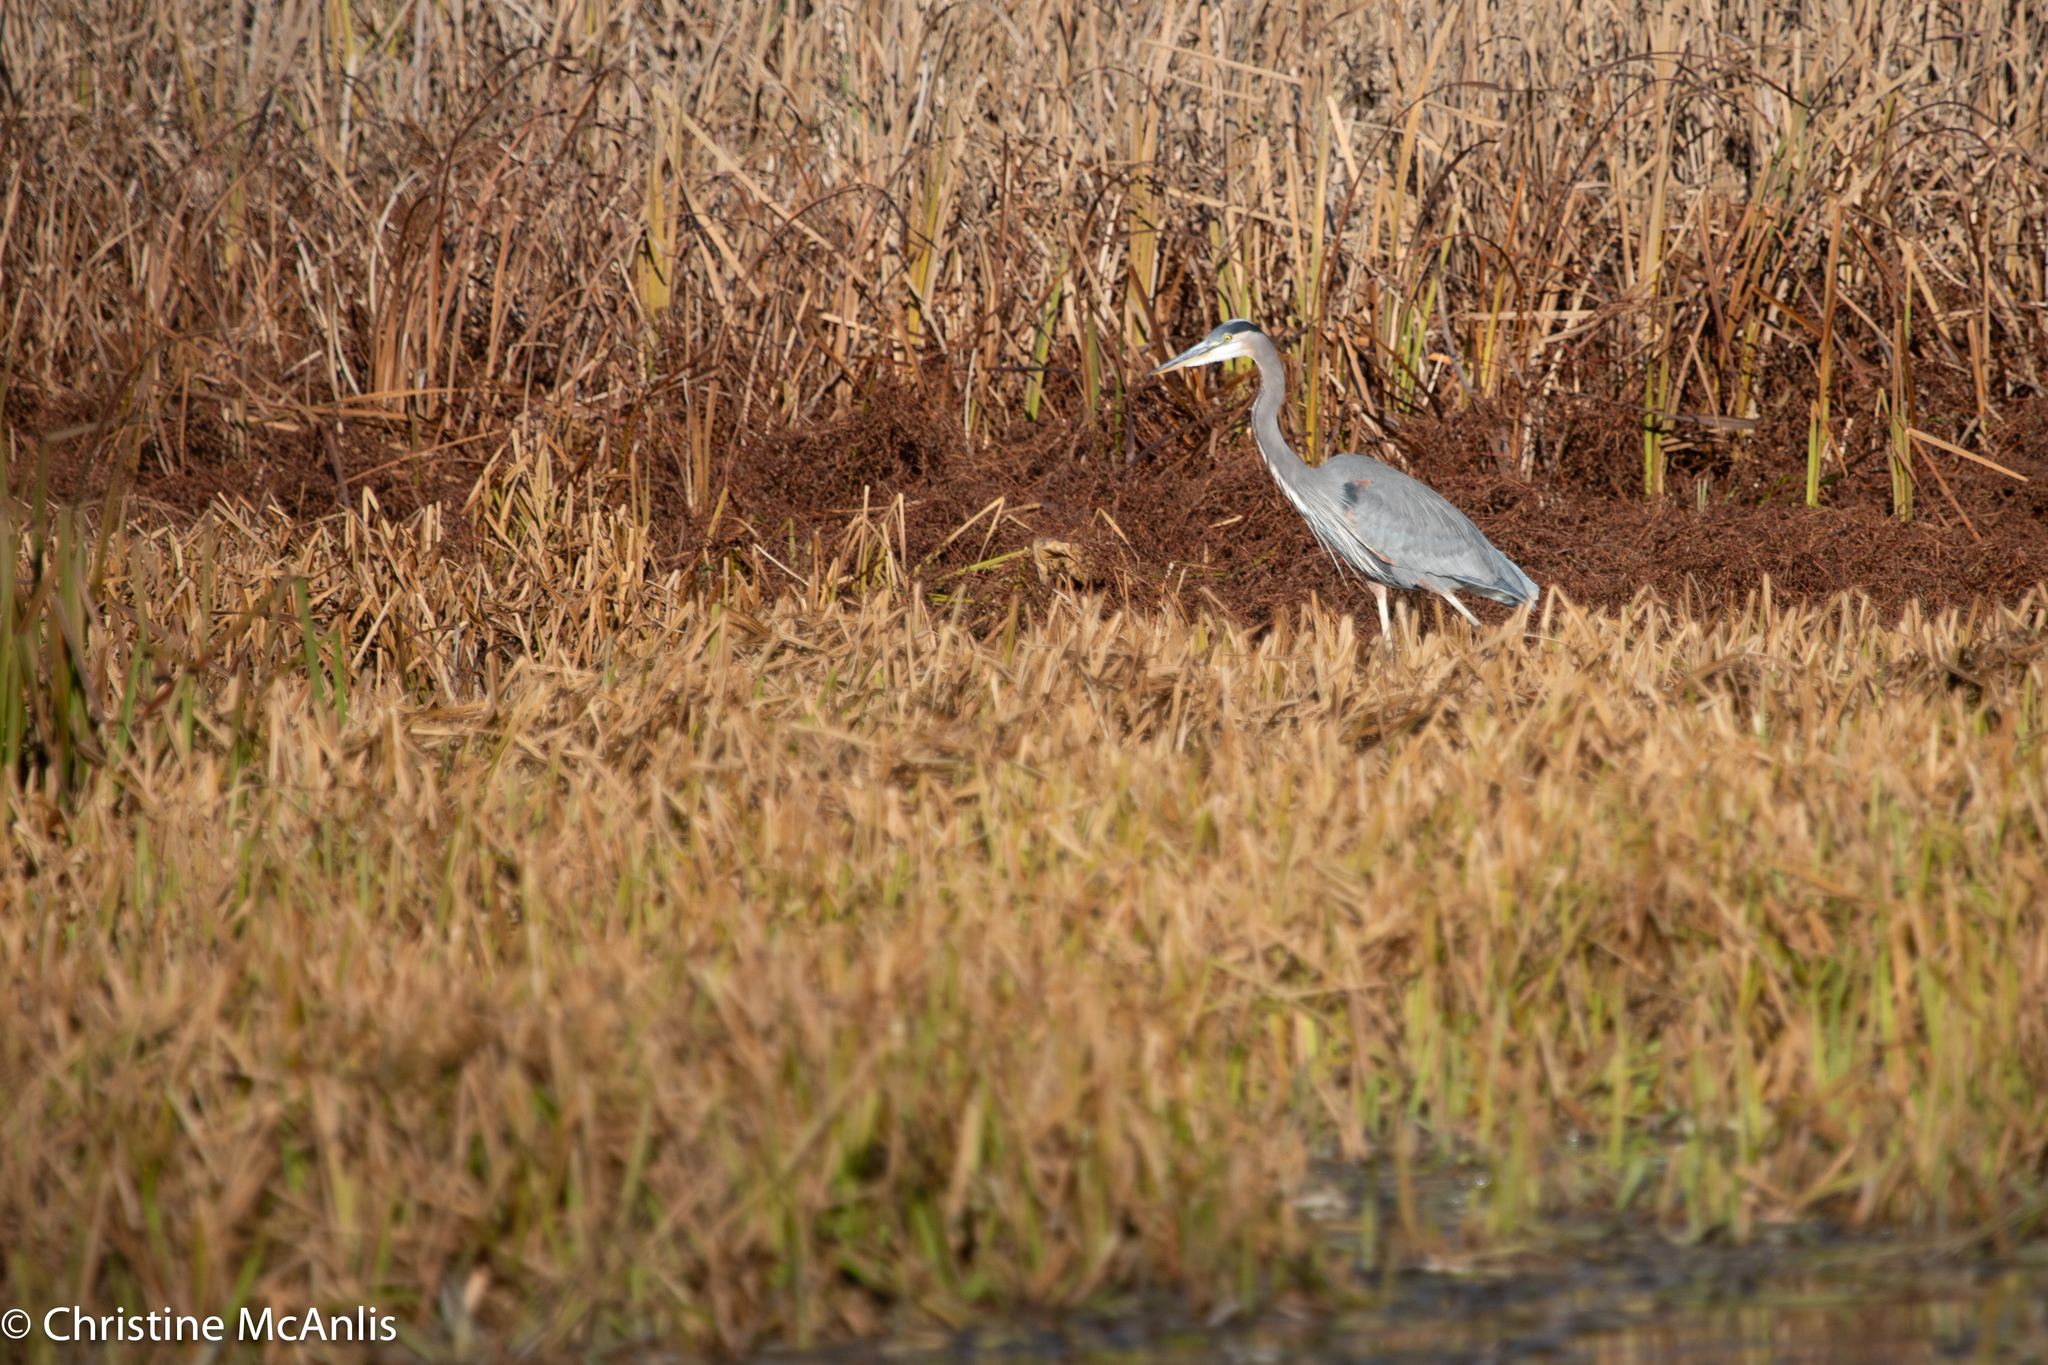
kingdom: Animalia
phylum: Chordata
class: Aves
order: Pelecaniformes
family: Ardeidae
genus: Ardea
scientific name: Ardea herodias
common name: Great blue heron
